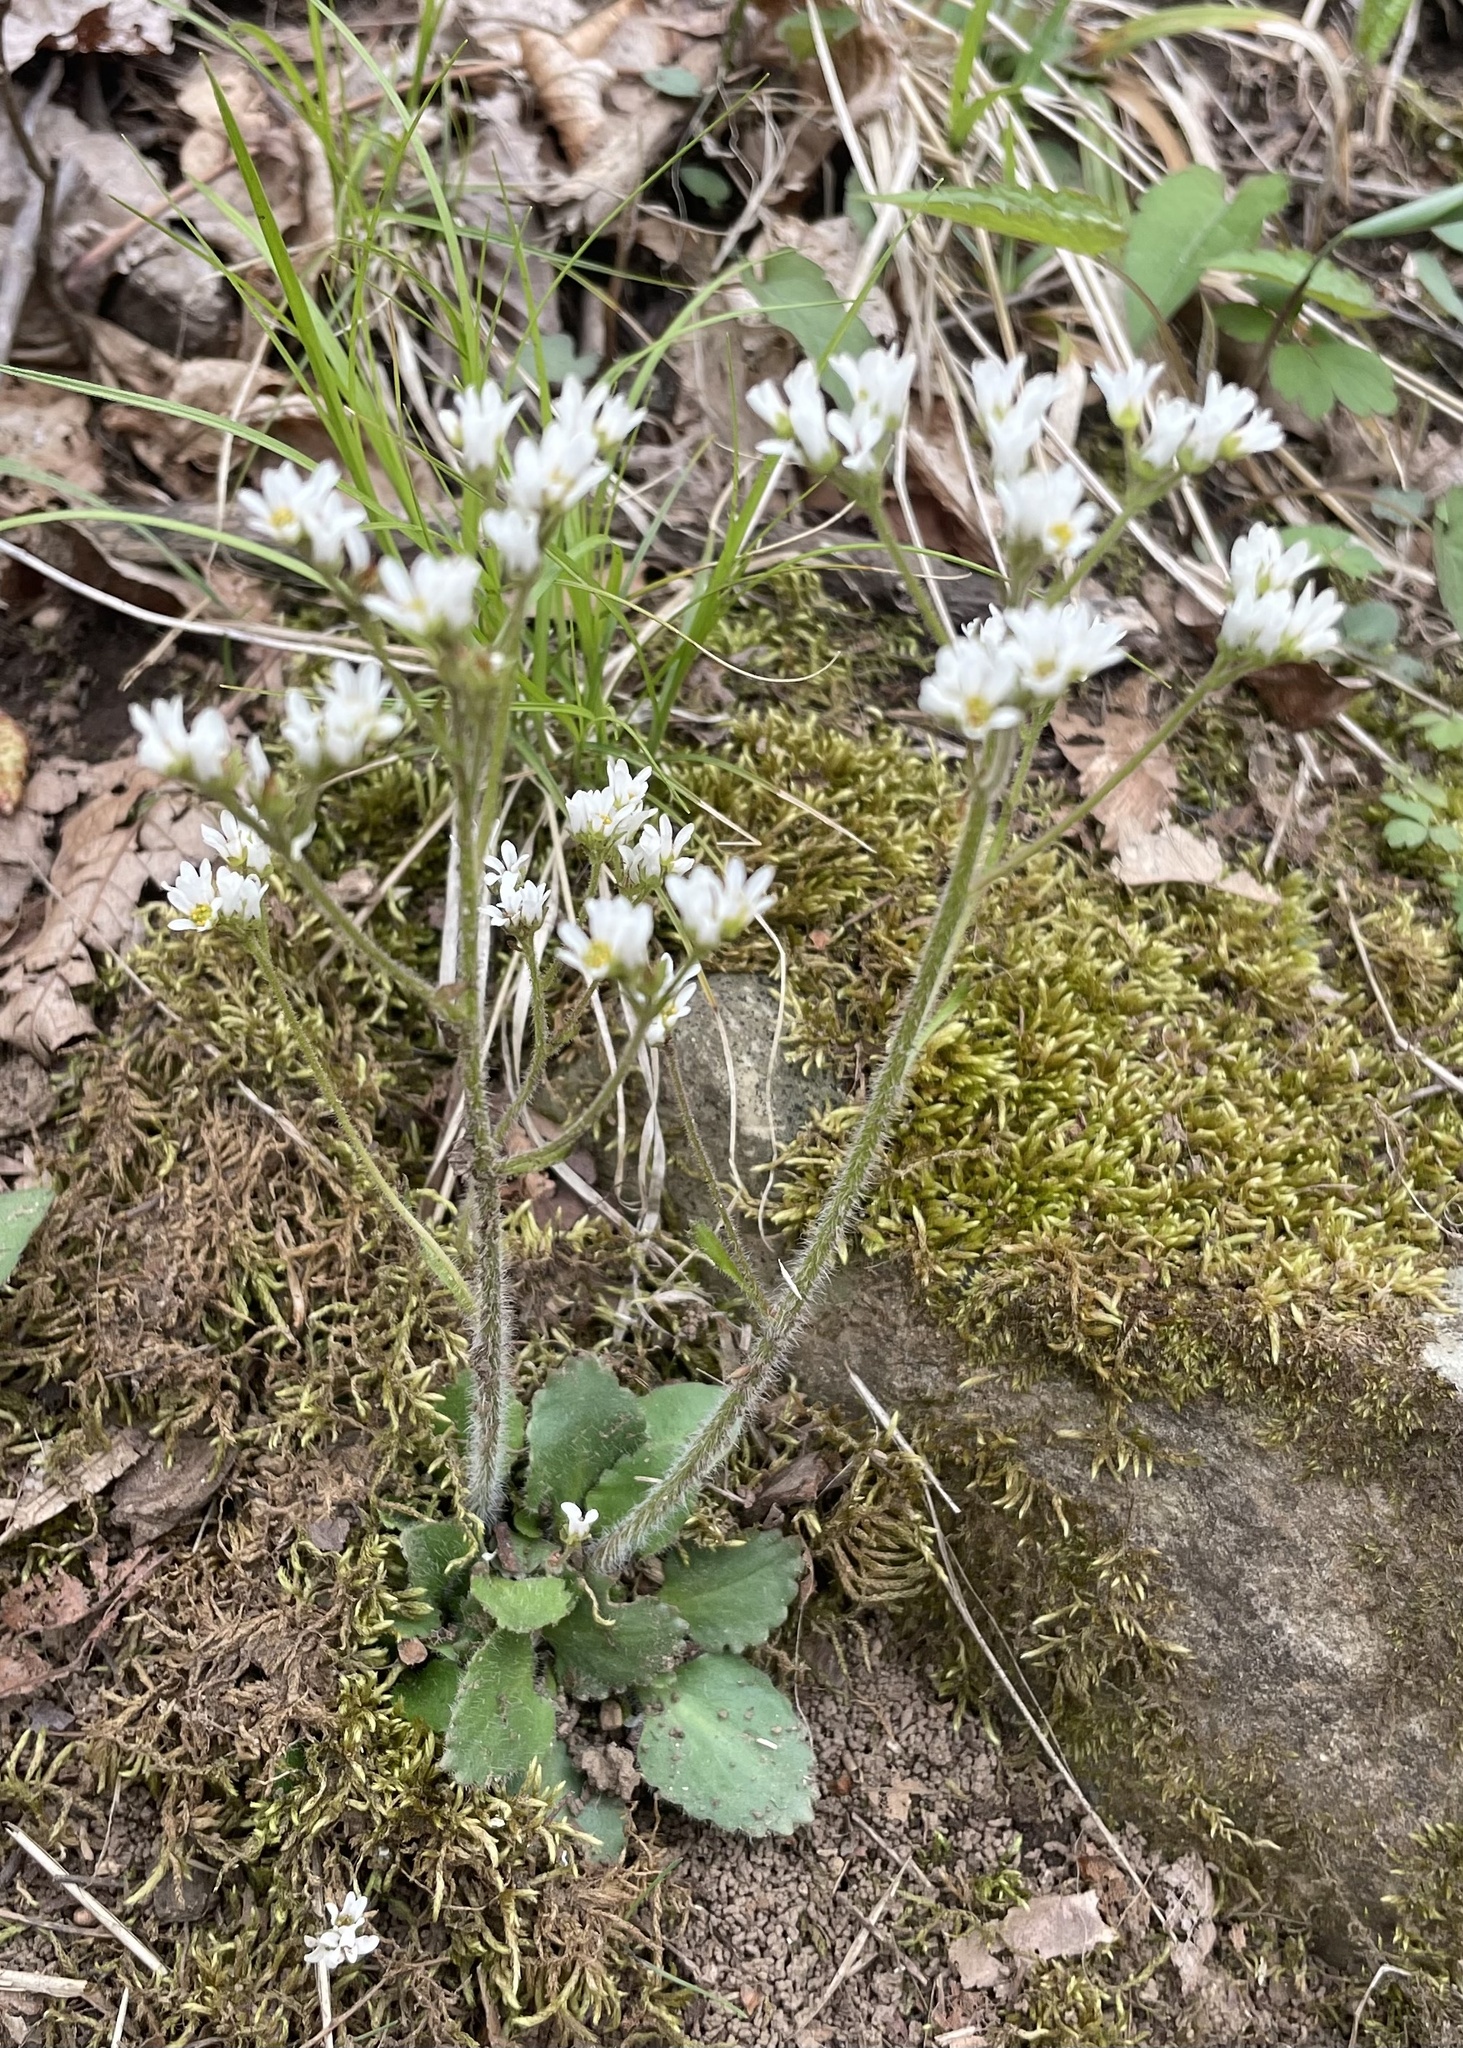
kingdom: Plantae
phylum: Tracheophyta
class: Magnoliopsida
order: Saxifragales
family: Saxifragaceae
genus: Micranthes
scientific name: Micranthes virginiensis
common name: Early saxifrage
